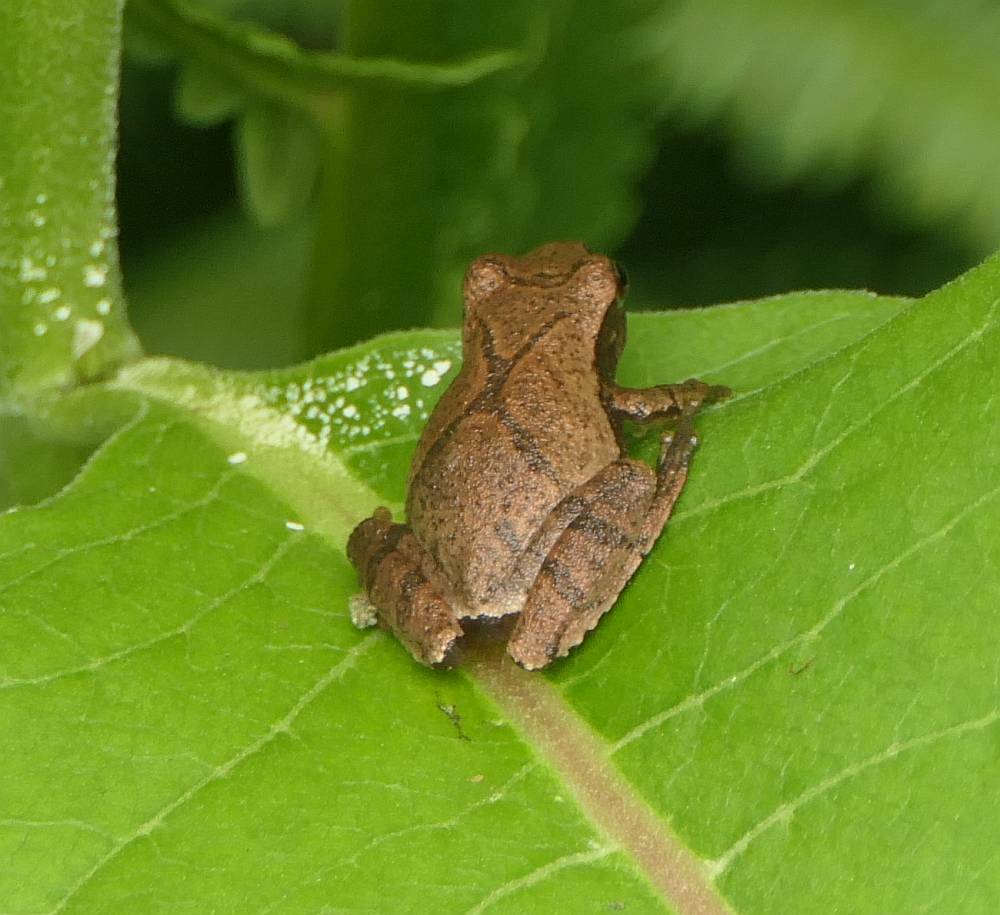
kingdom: Animalia
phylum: Chordata
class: Amphibia
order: Anura
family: Hylidae
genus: Pseudacris
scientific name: Pseudacris crucifer
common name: Spring peeper
